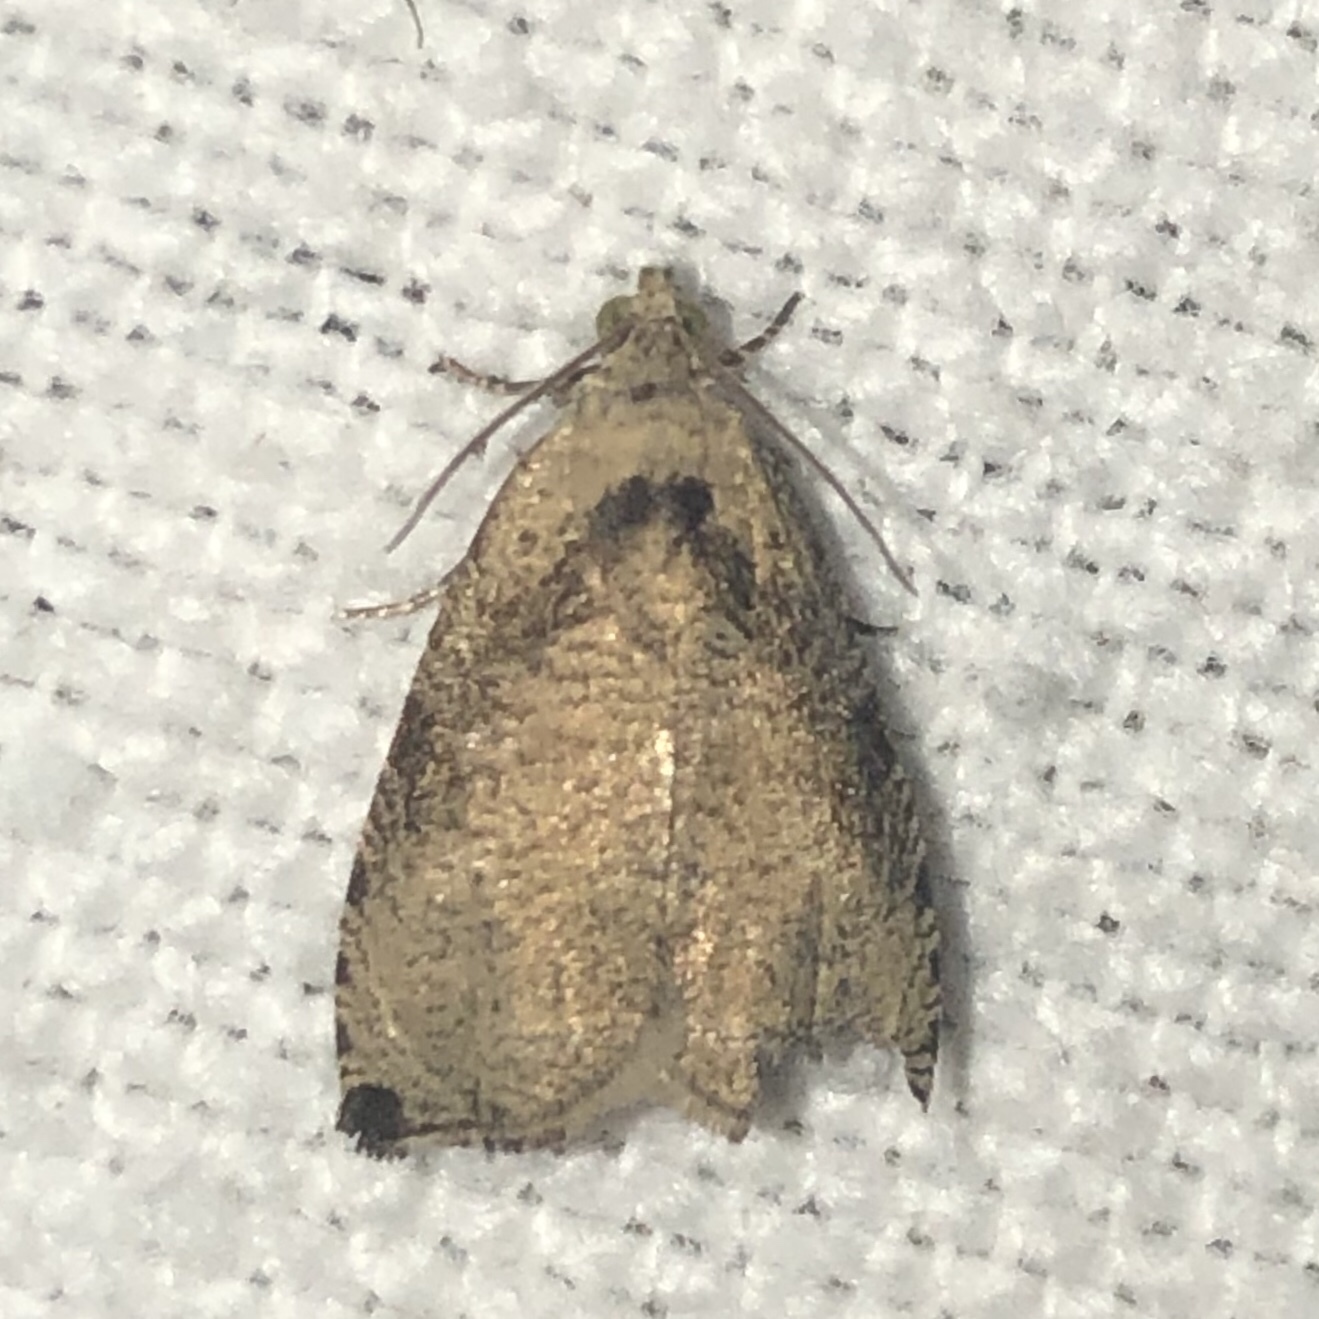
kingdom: Animalia
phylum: Arthropoda
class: Insecta
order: Lepidoptera
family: Tortricidae
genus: Olethreutes
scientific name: Olethreutes exoletum
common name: Wretched olethreutes moth
